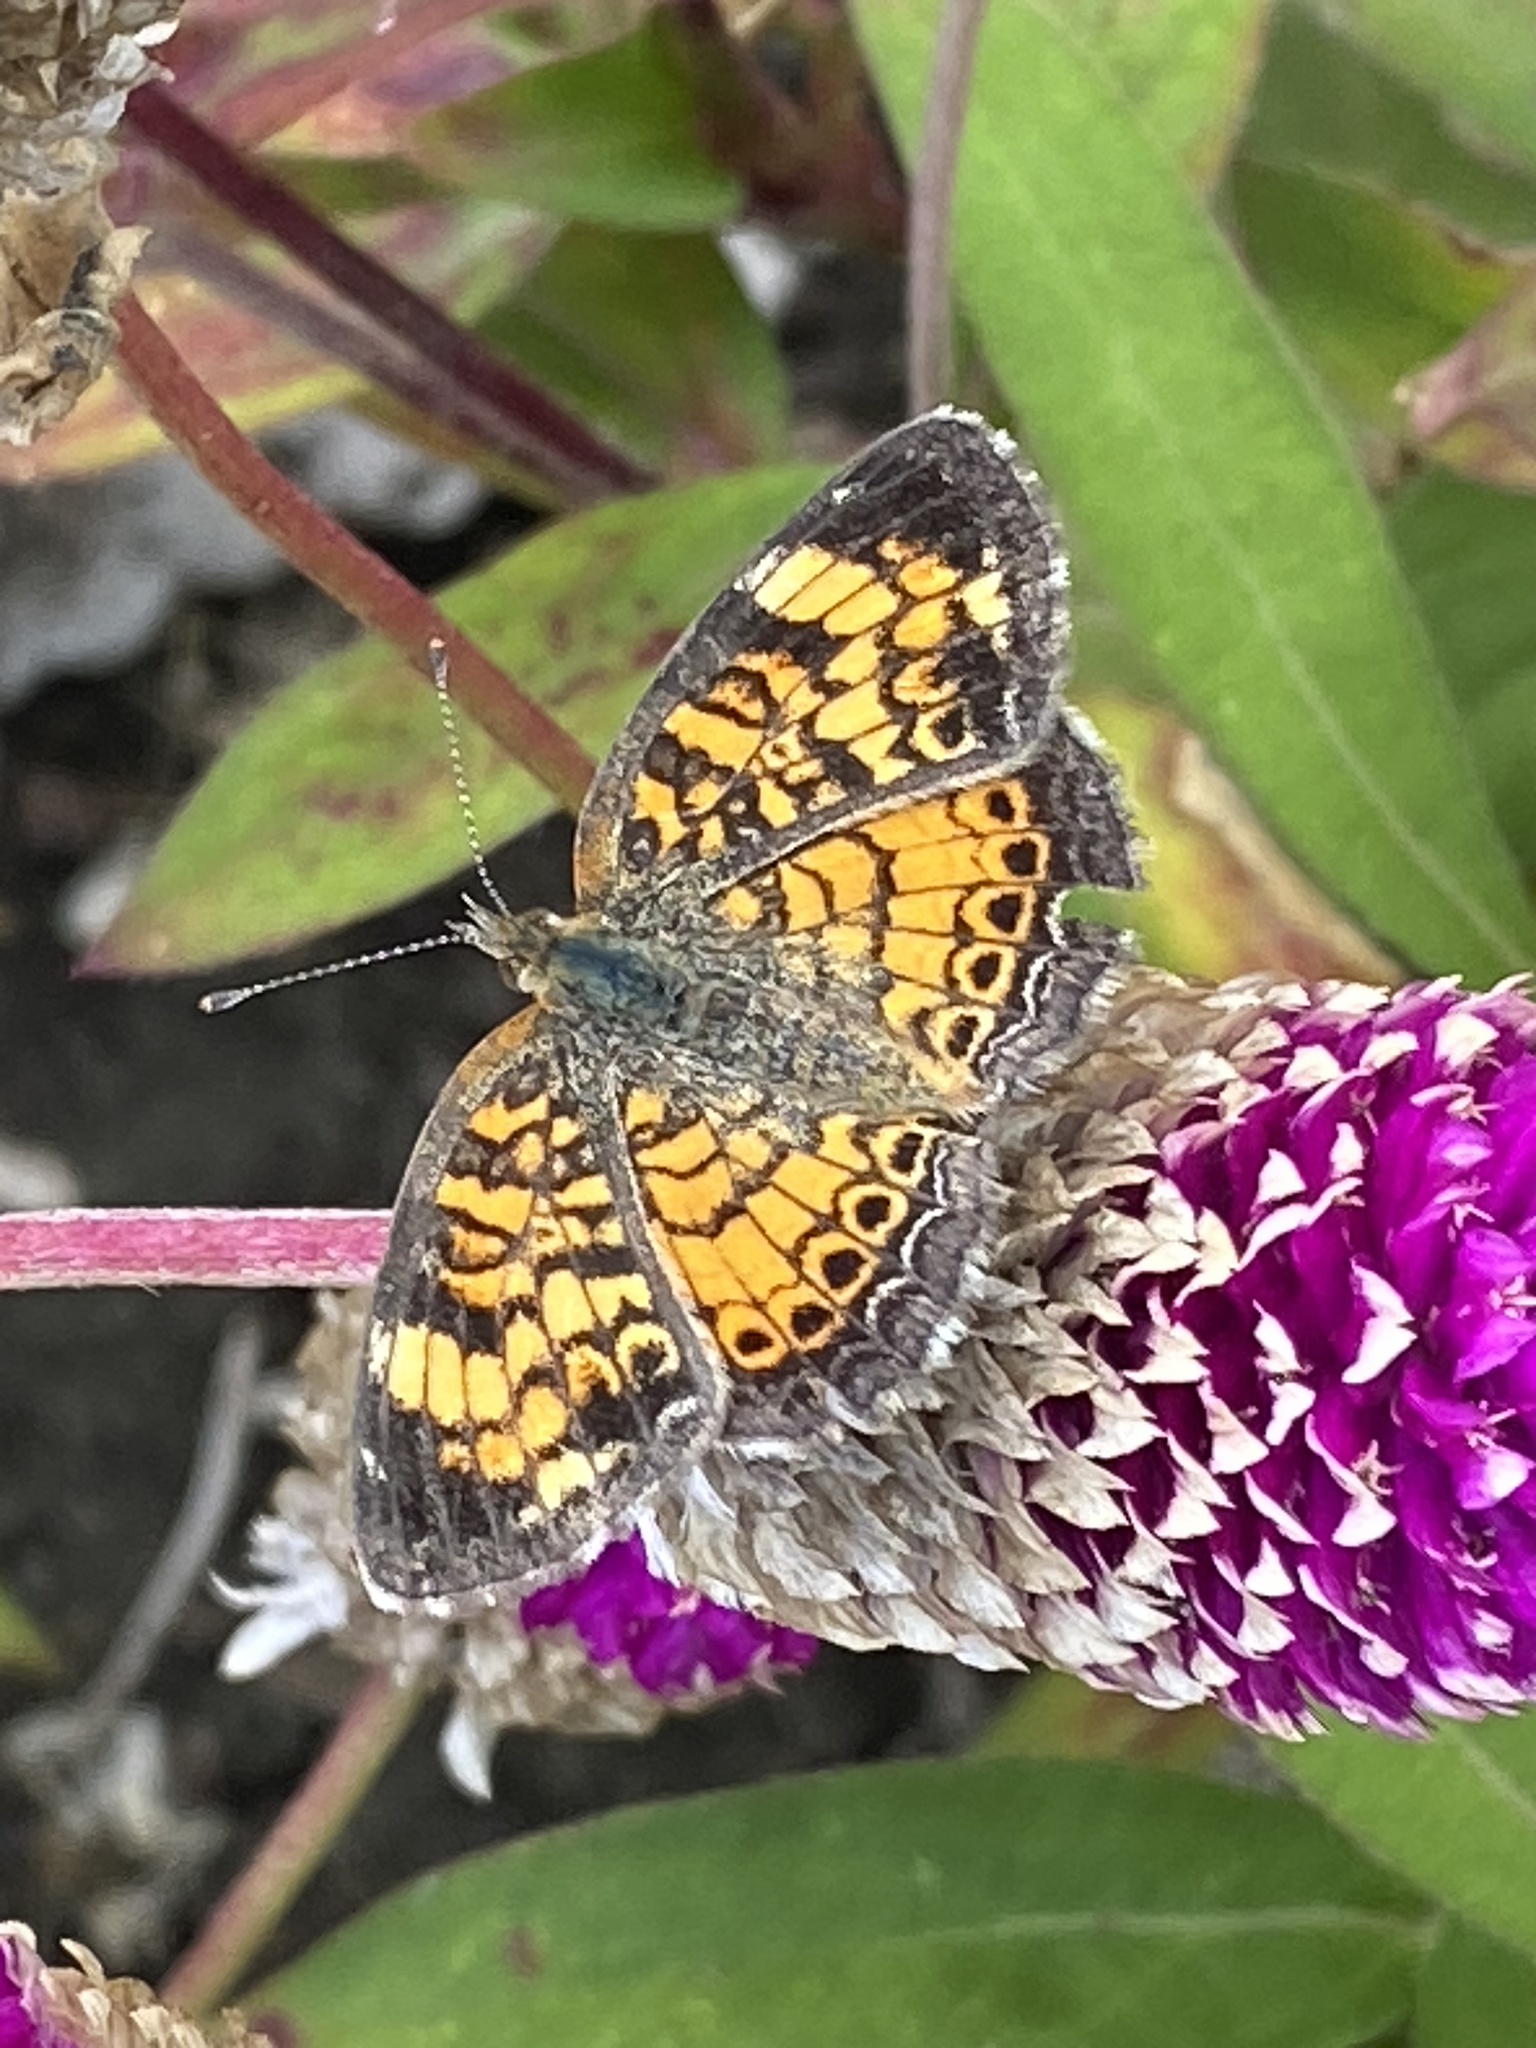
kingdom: Animalia
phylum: Arthropoda
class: Insecta
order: Lepidoptera
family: Nymphalidae
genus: Phyciodes
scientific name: Phyciodes tharos
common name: Pearl crescent
